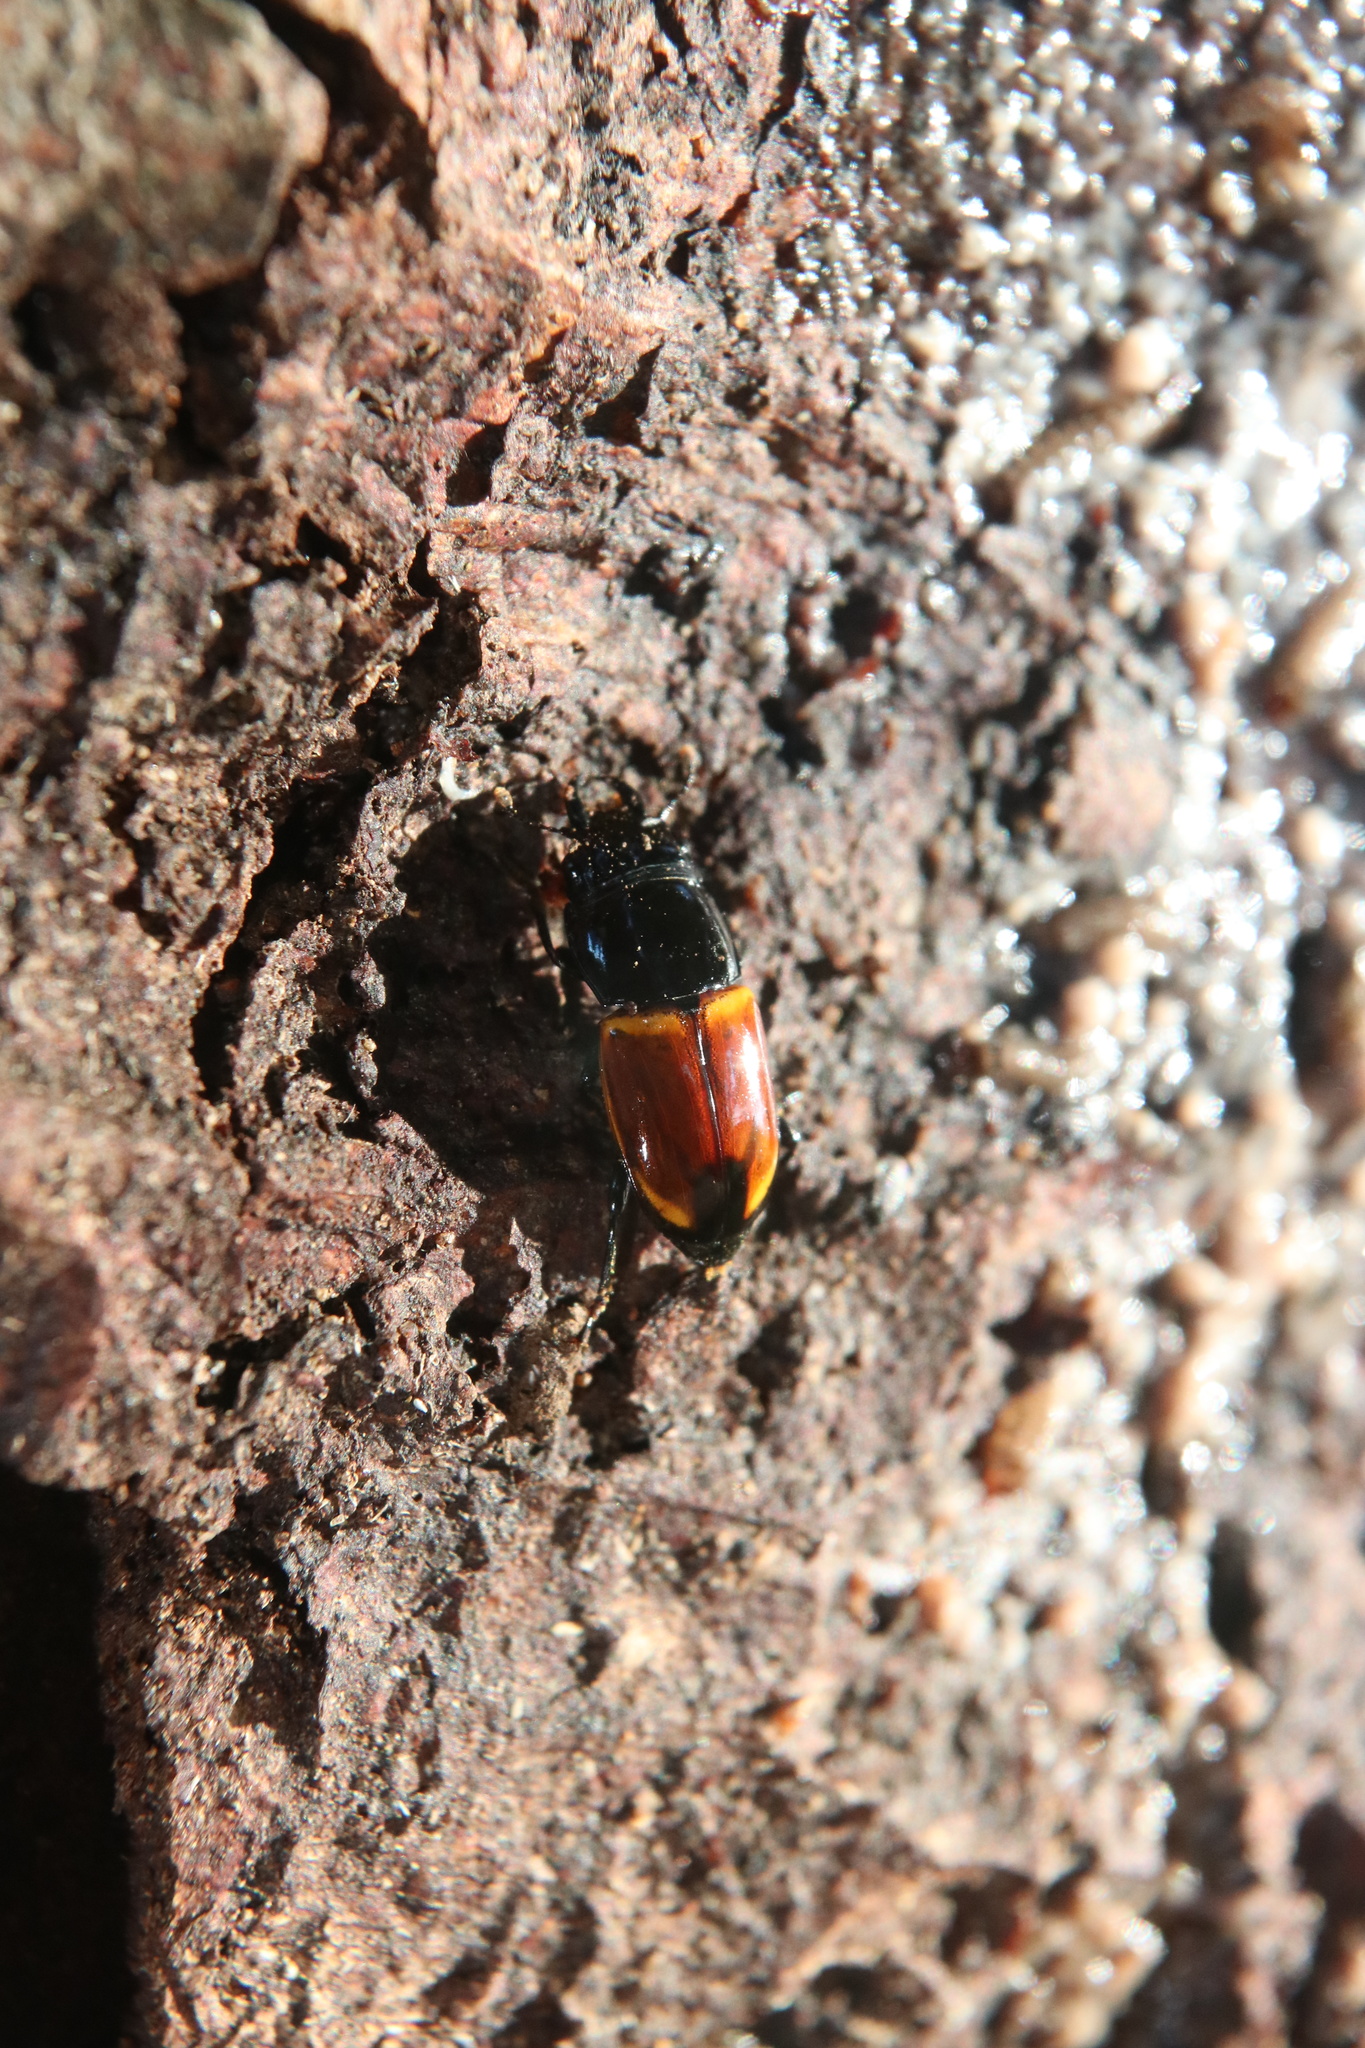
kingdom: Animalia
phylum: Arthropoda
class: Insecta
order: Coleoptera
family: Nitidulidae
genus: Paromia
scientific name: Paromia dorcoides
